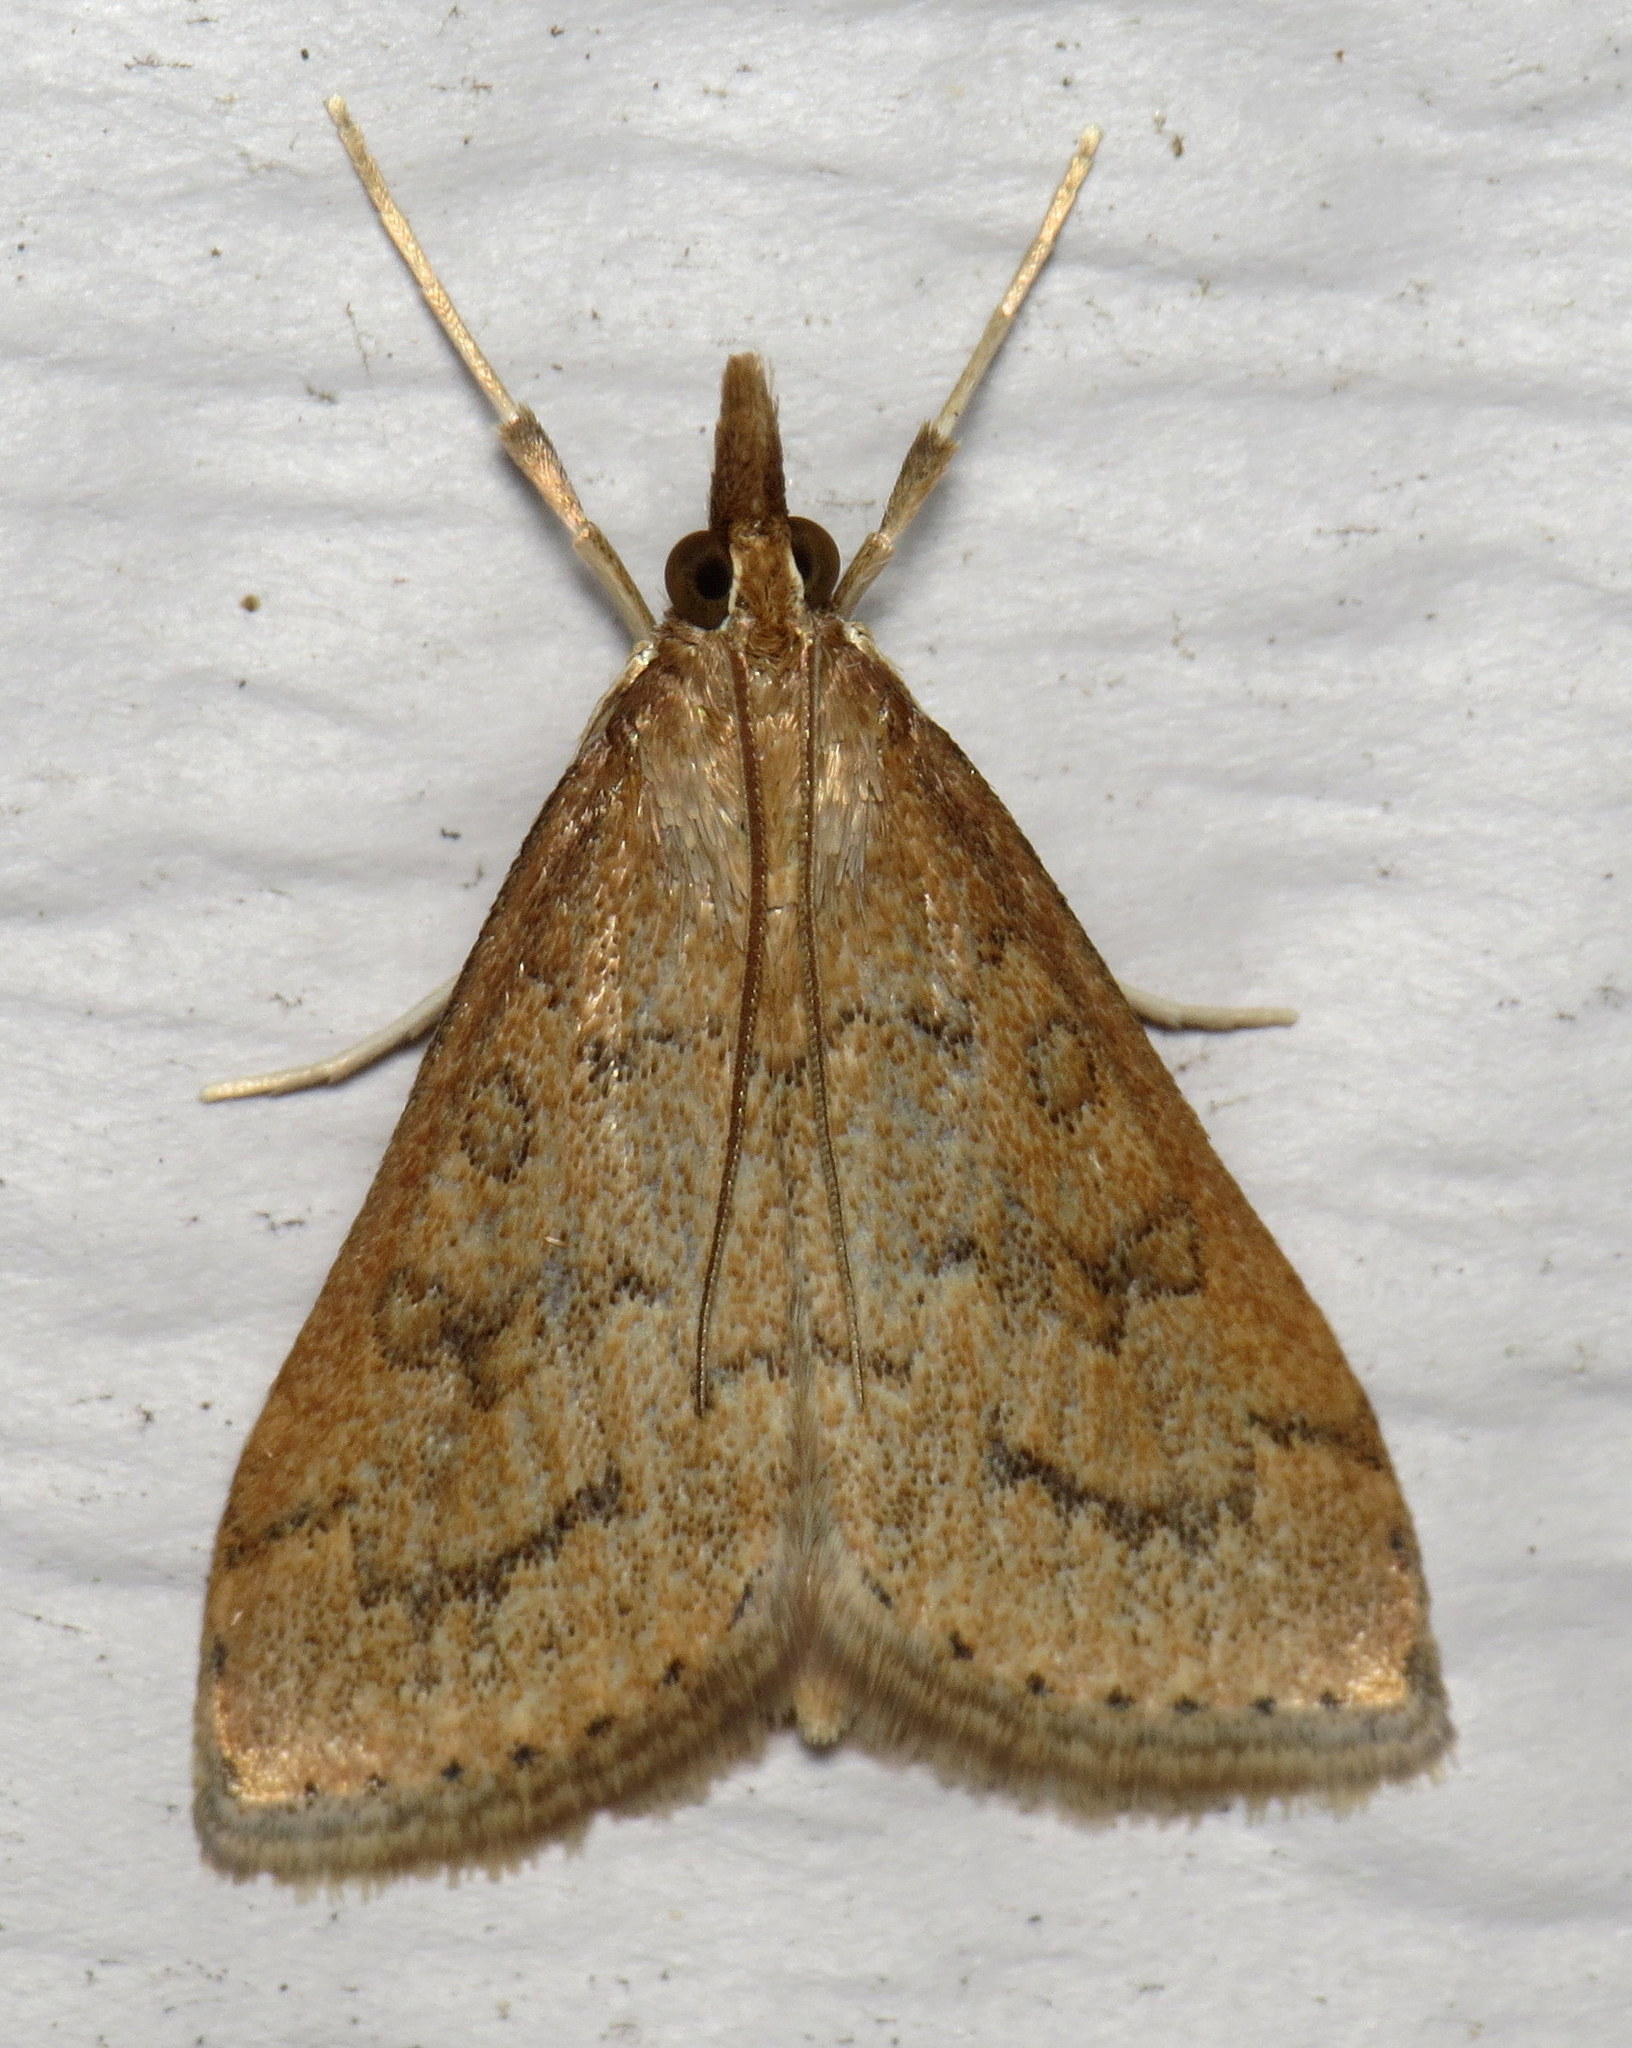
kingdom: Animalia
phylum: Arthropoda
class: Insecta
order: Lepidoptera
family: Crambidae
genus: Udea
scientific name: Udea rubigalis
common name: Celery leaftier moth
